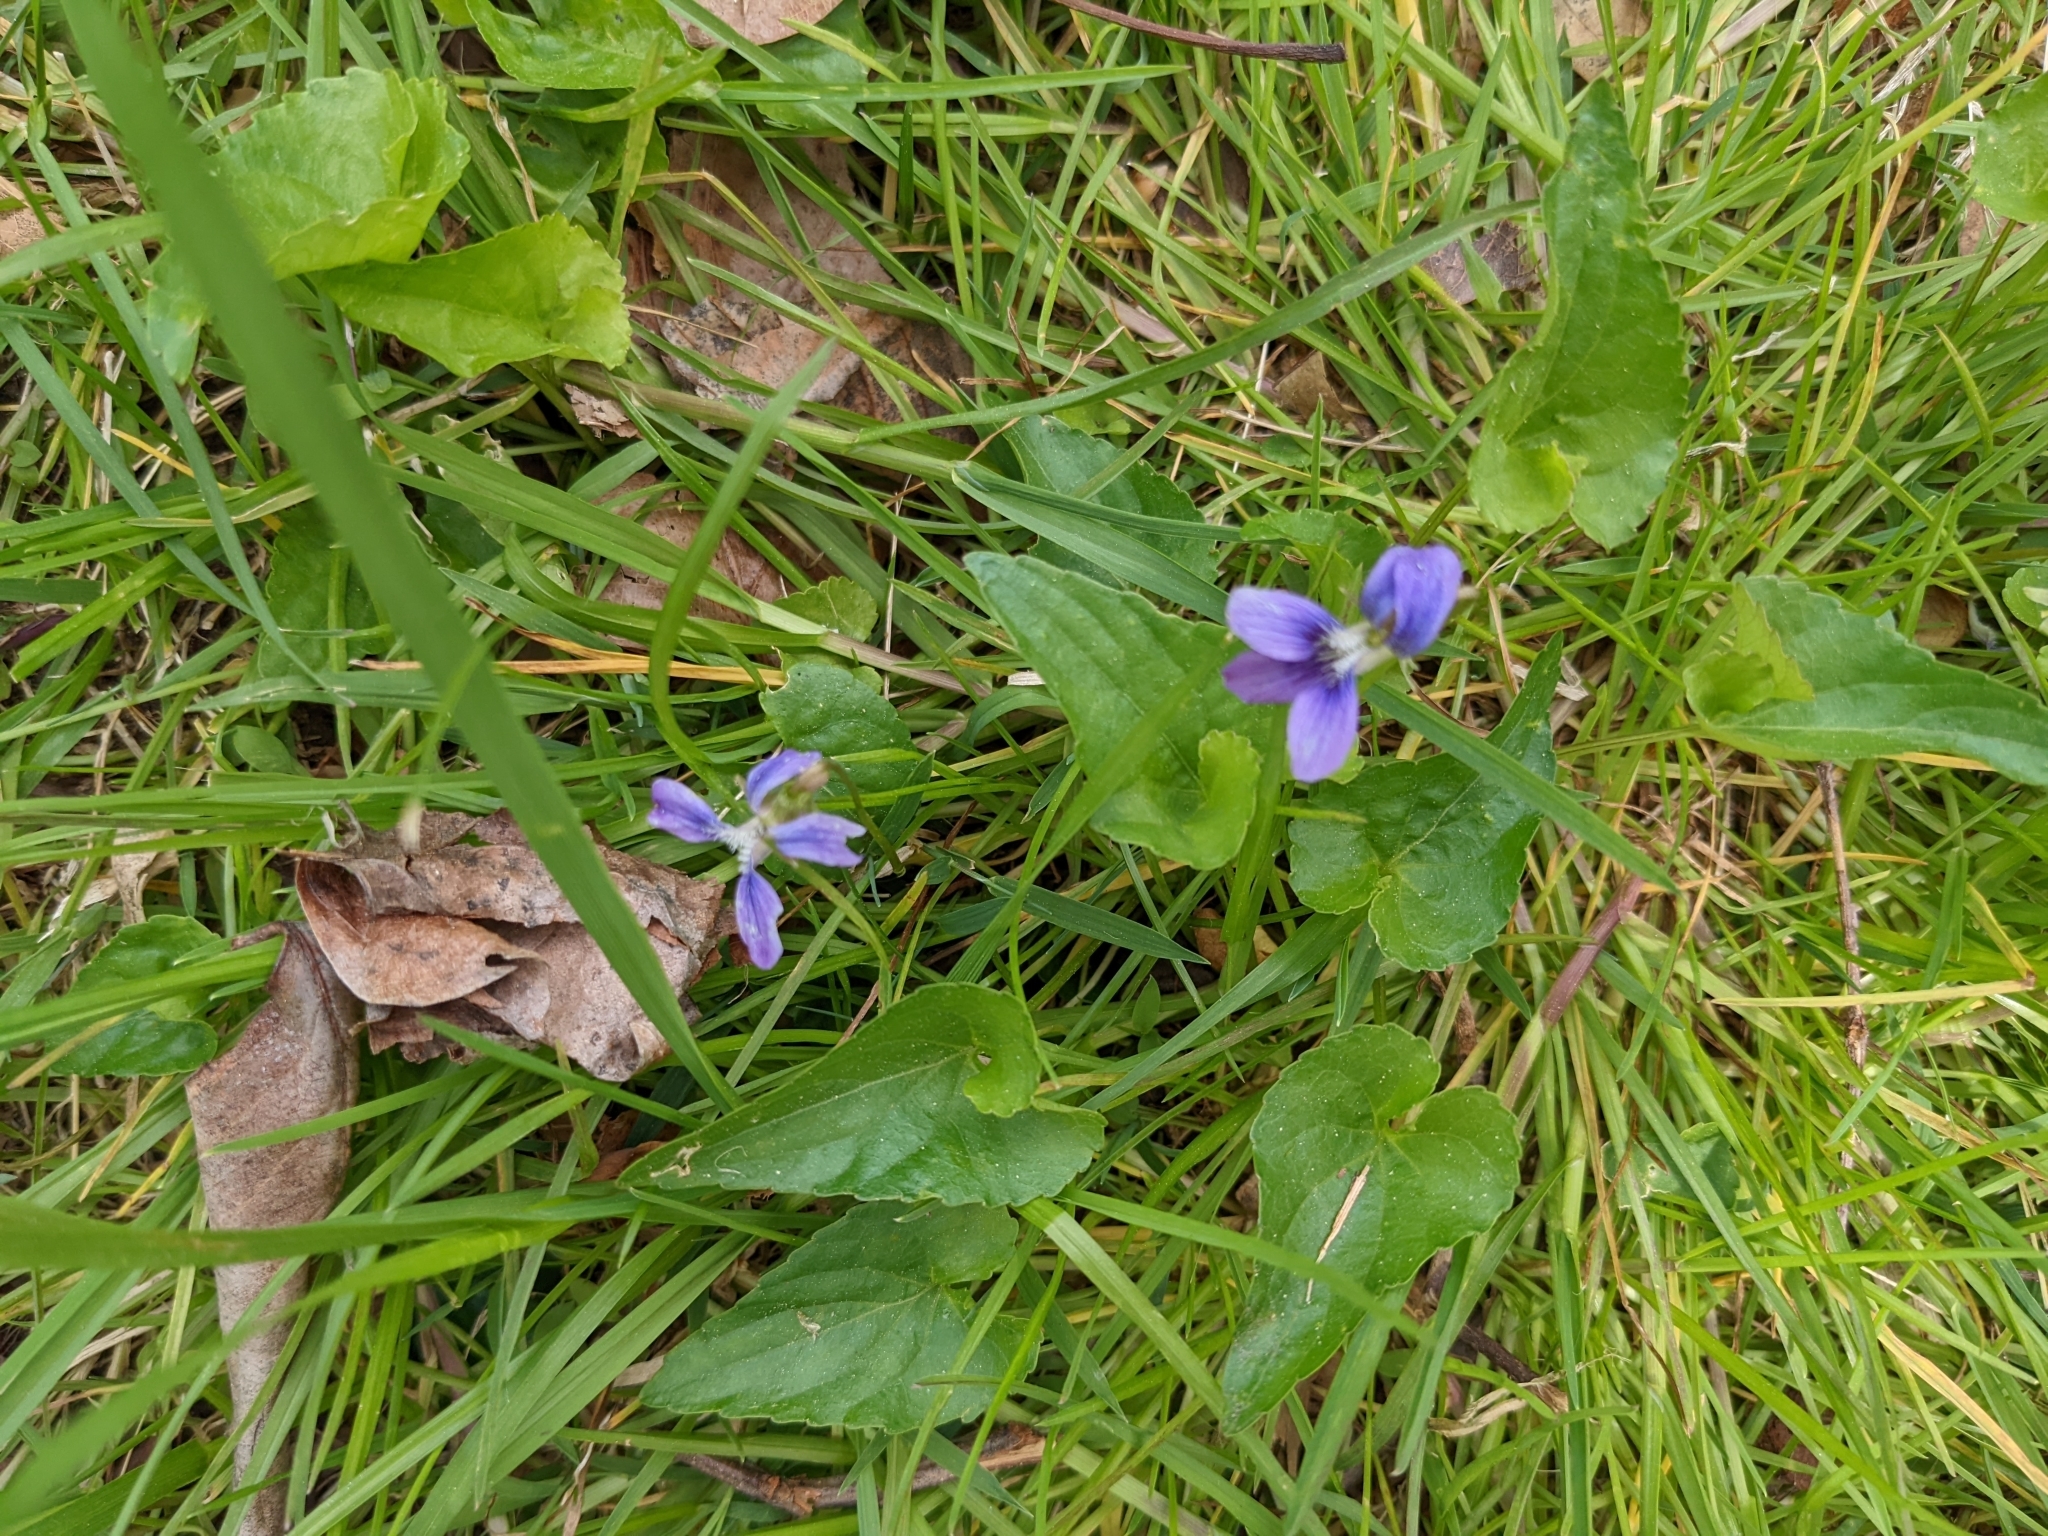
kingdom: Plantae
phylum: Tracheophyta
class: Magnoliopsida
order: Malpighiales
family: Violaceae
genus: Viola
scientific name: Viola sororia
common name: Dooryard violet
